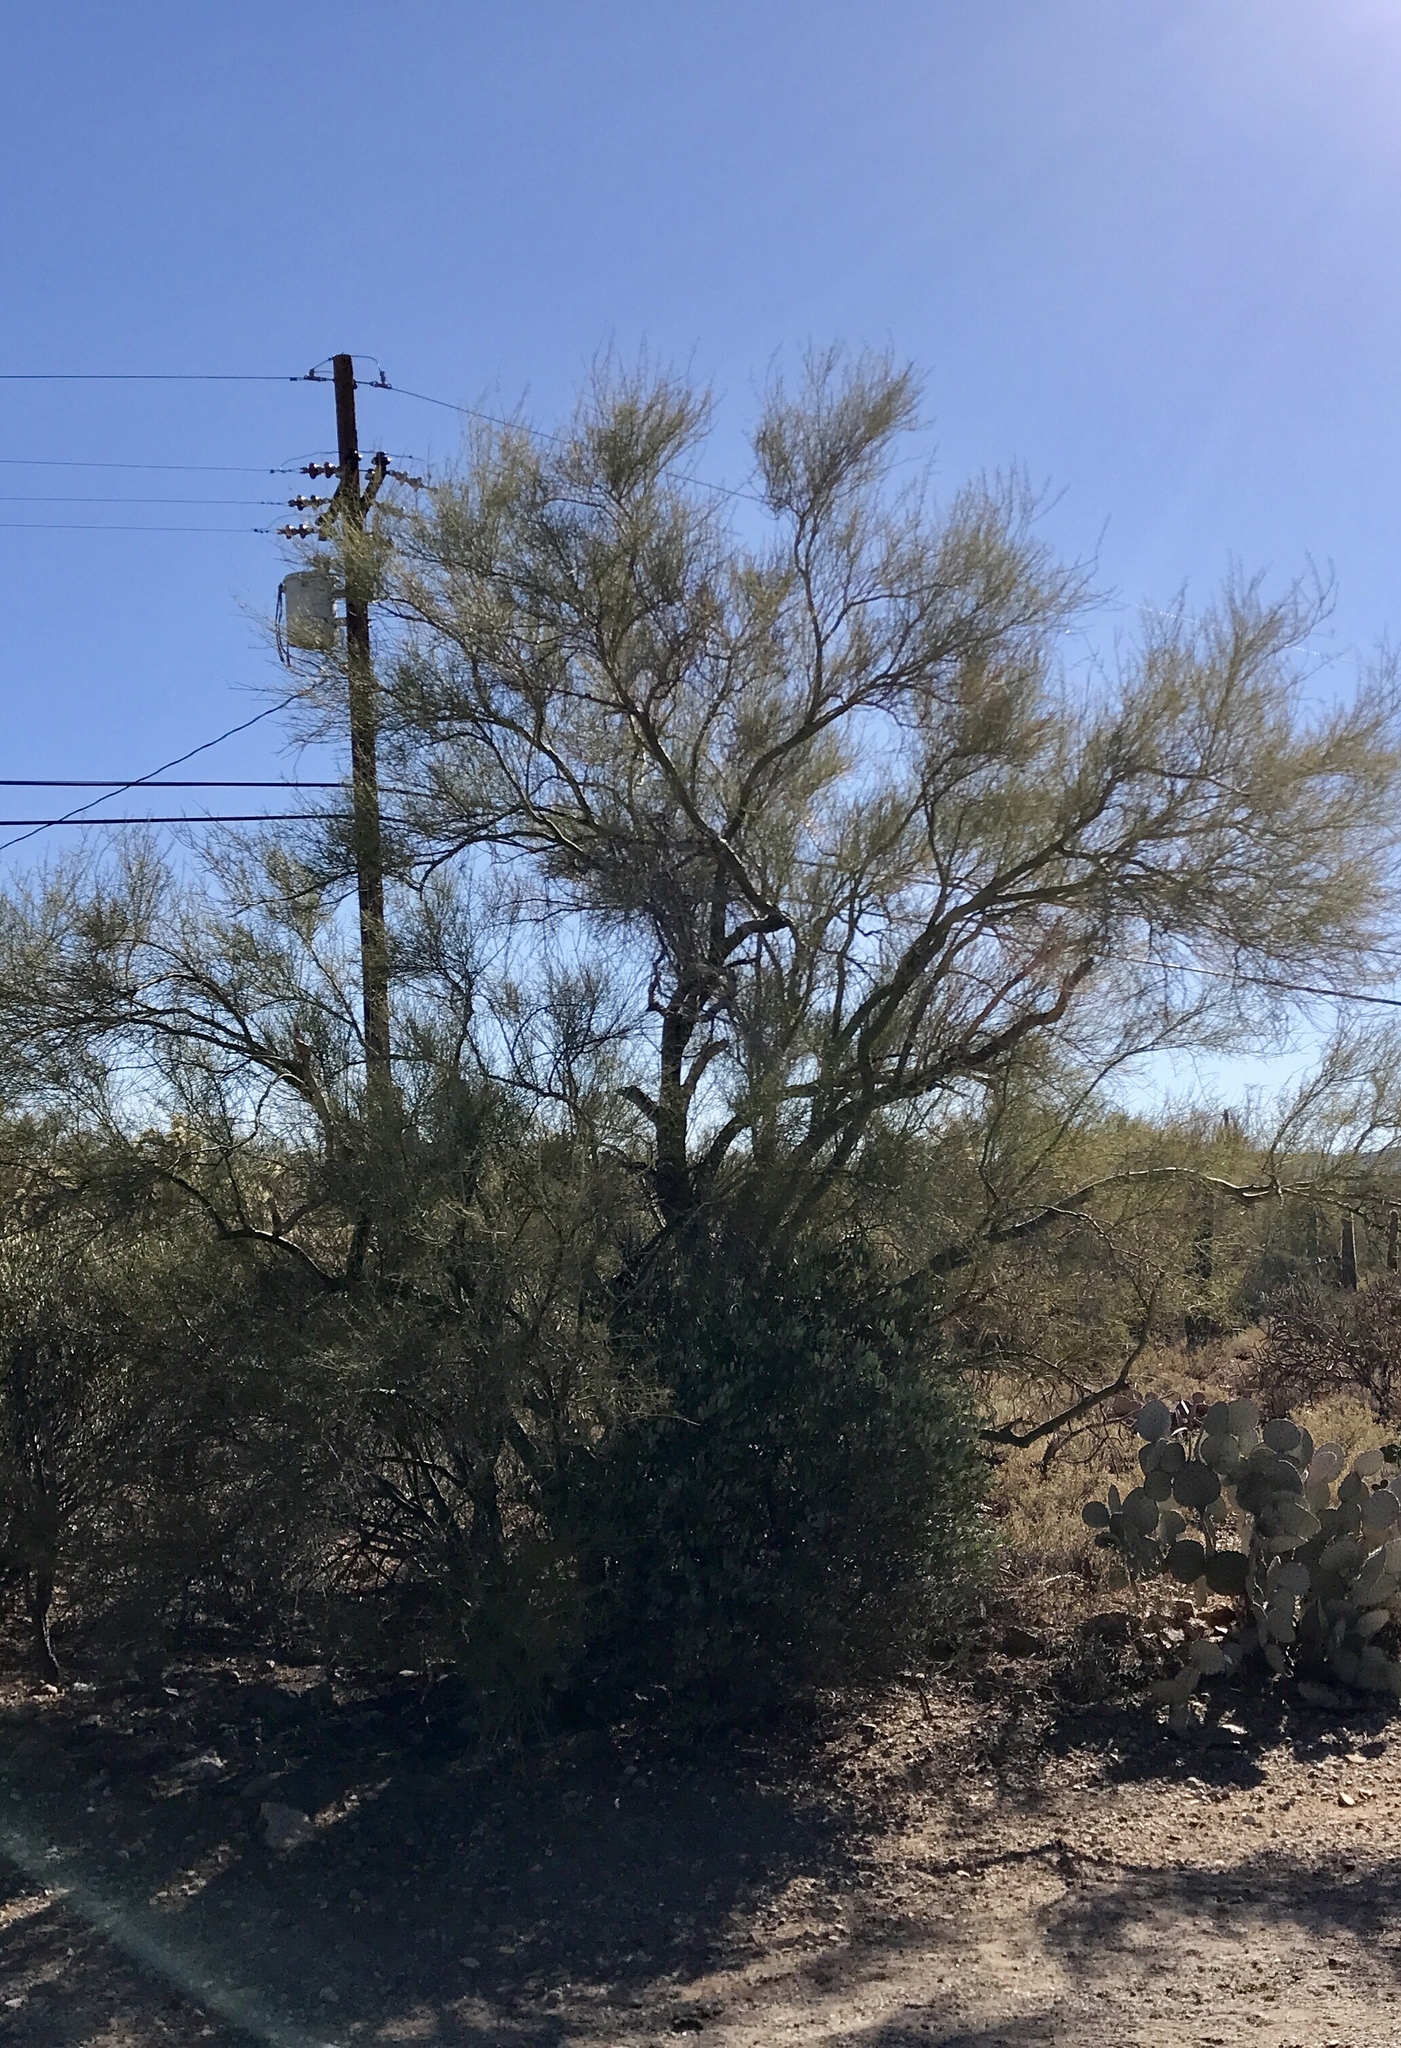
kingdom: Plantae
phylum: Tracheophyta
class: Magnoliopsida
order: Fabales
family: Fabaceae
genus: Parkinsonia
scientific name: Parkinsonia florida
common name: Blue paloverde
